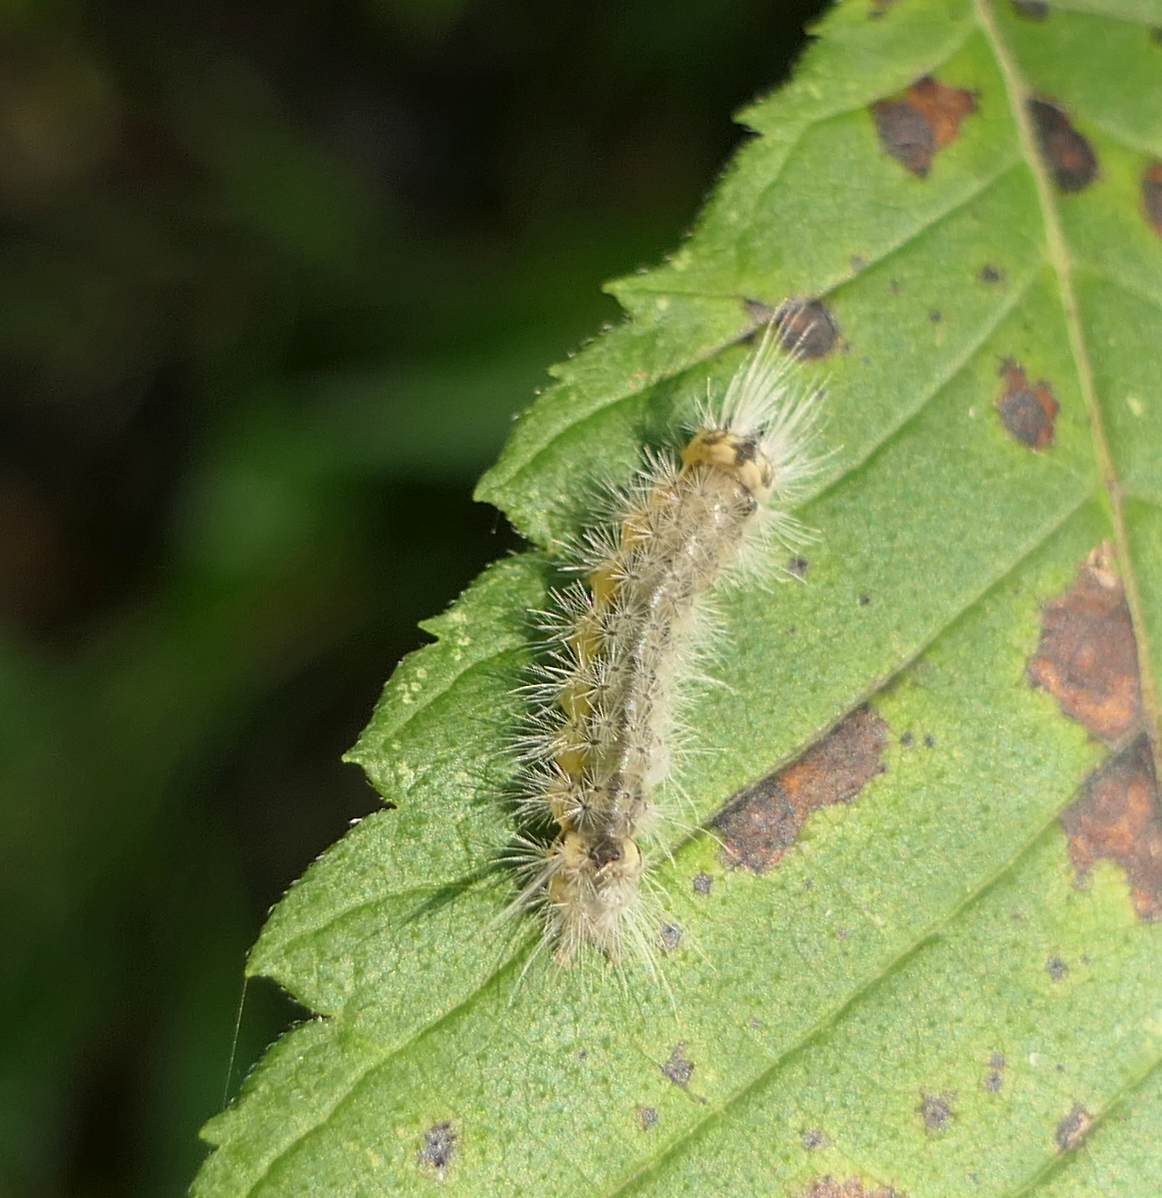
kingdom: Animalia
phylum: Arthropoda
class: Insecta
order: Lepidoptera
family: Erebidae
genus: Halysidota
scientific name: Halysidota tessellaris
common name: Banded tussock moth
